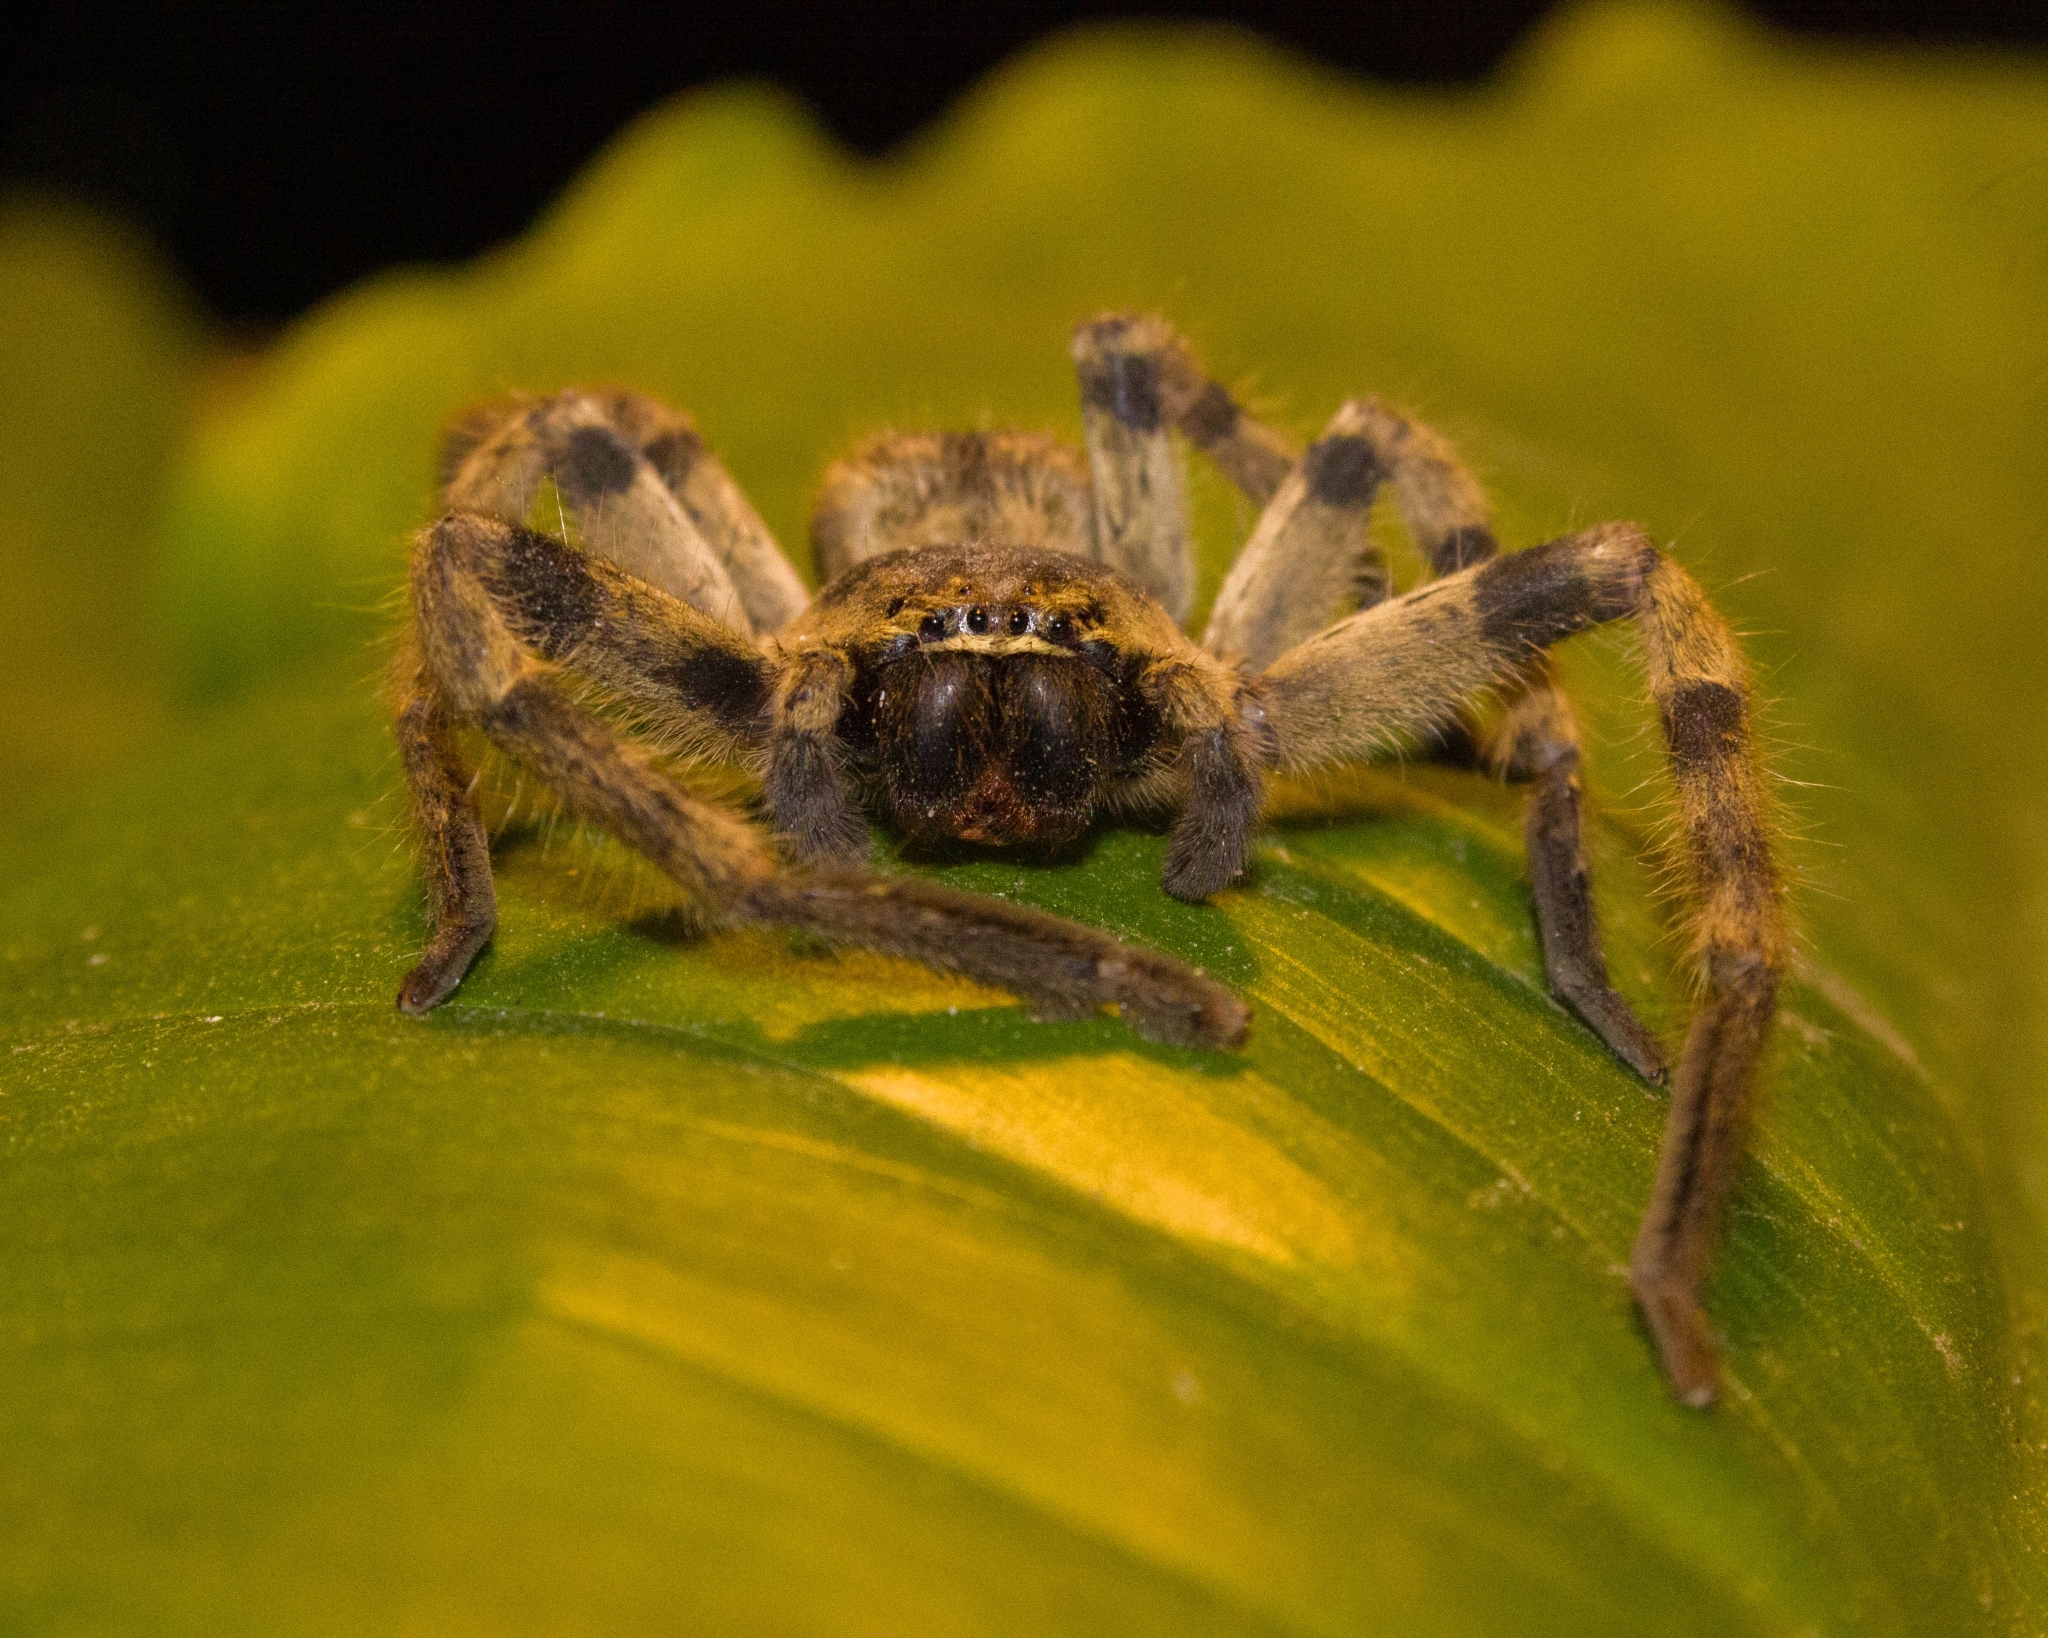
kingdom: Animalia
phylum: Arthropoda
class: Arachnida
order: Araneae
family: Sparassidae
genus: Polybetes
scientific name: Polybetes pythagoricus
